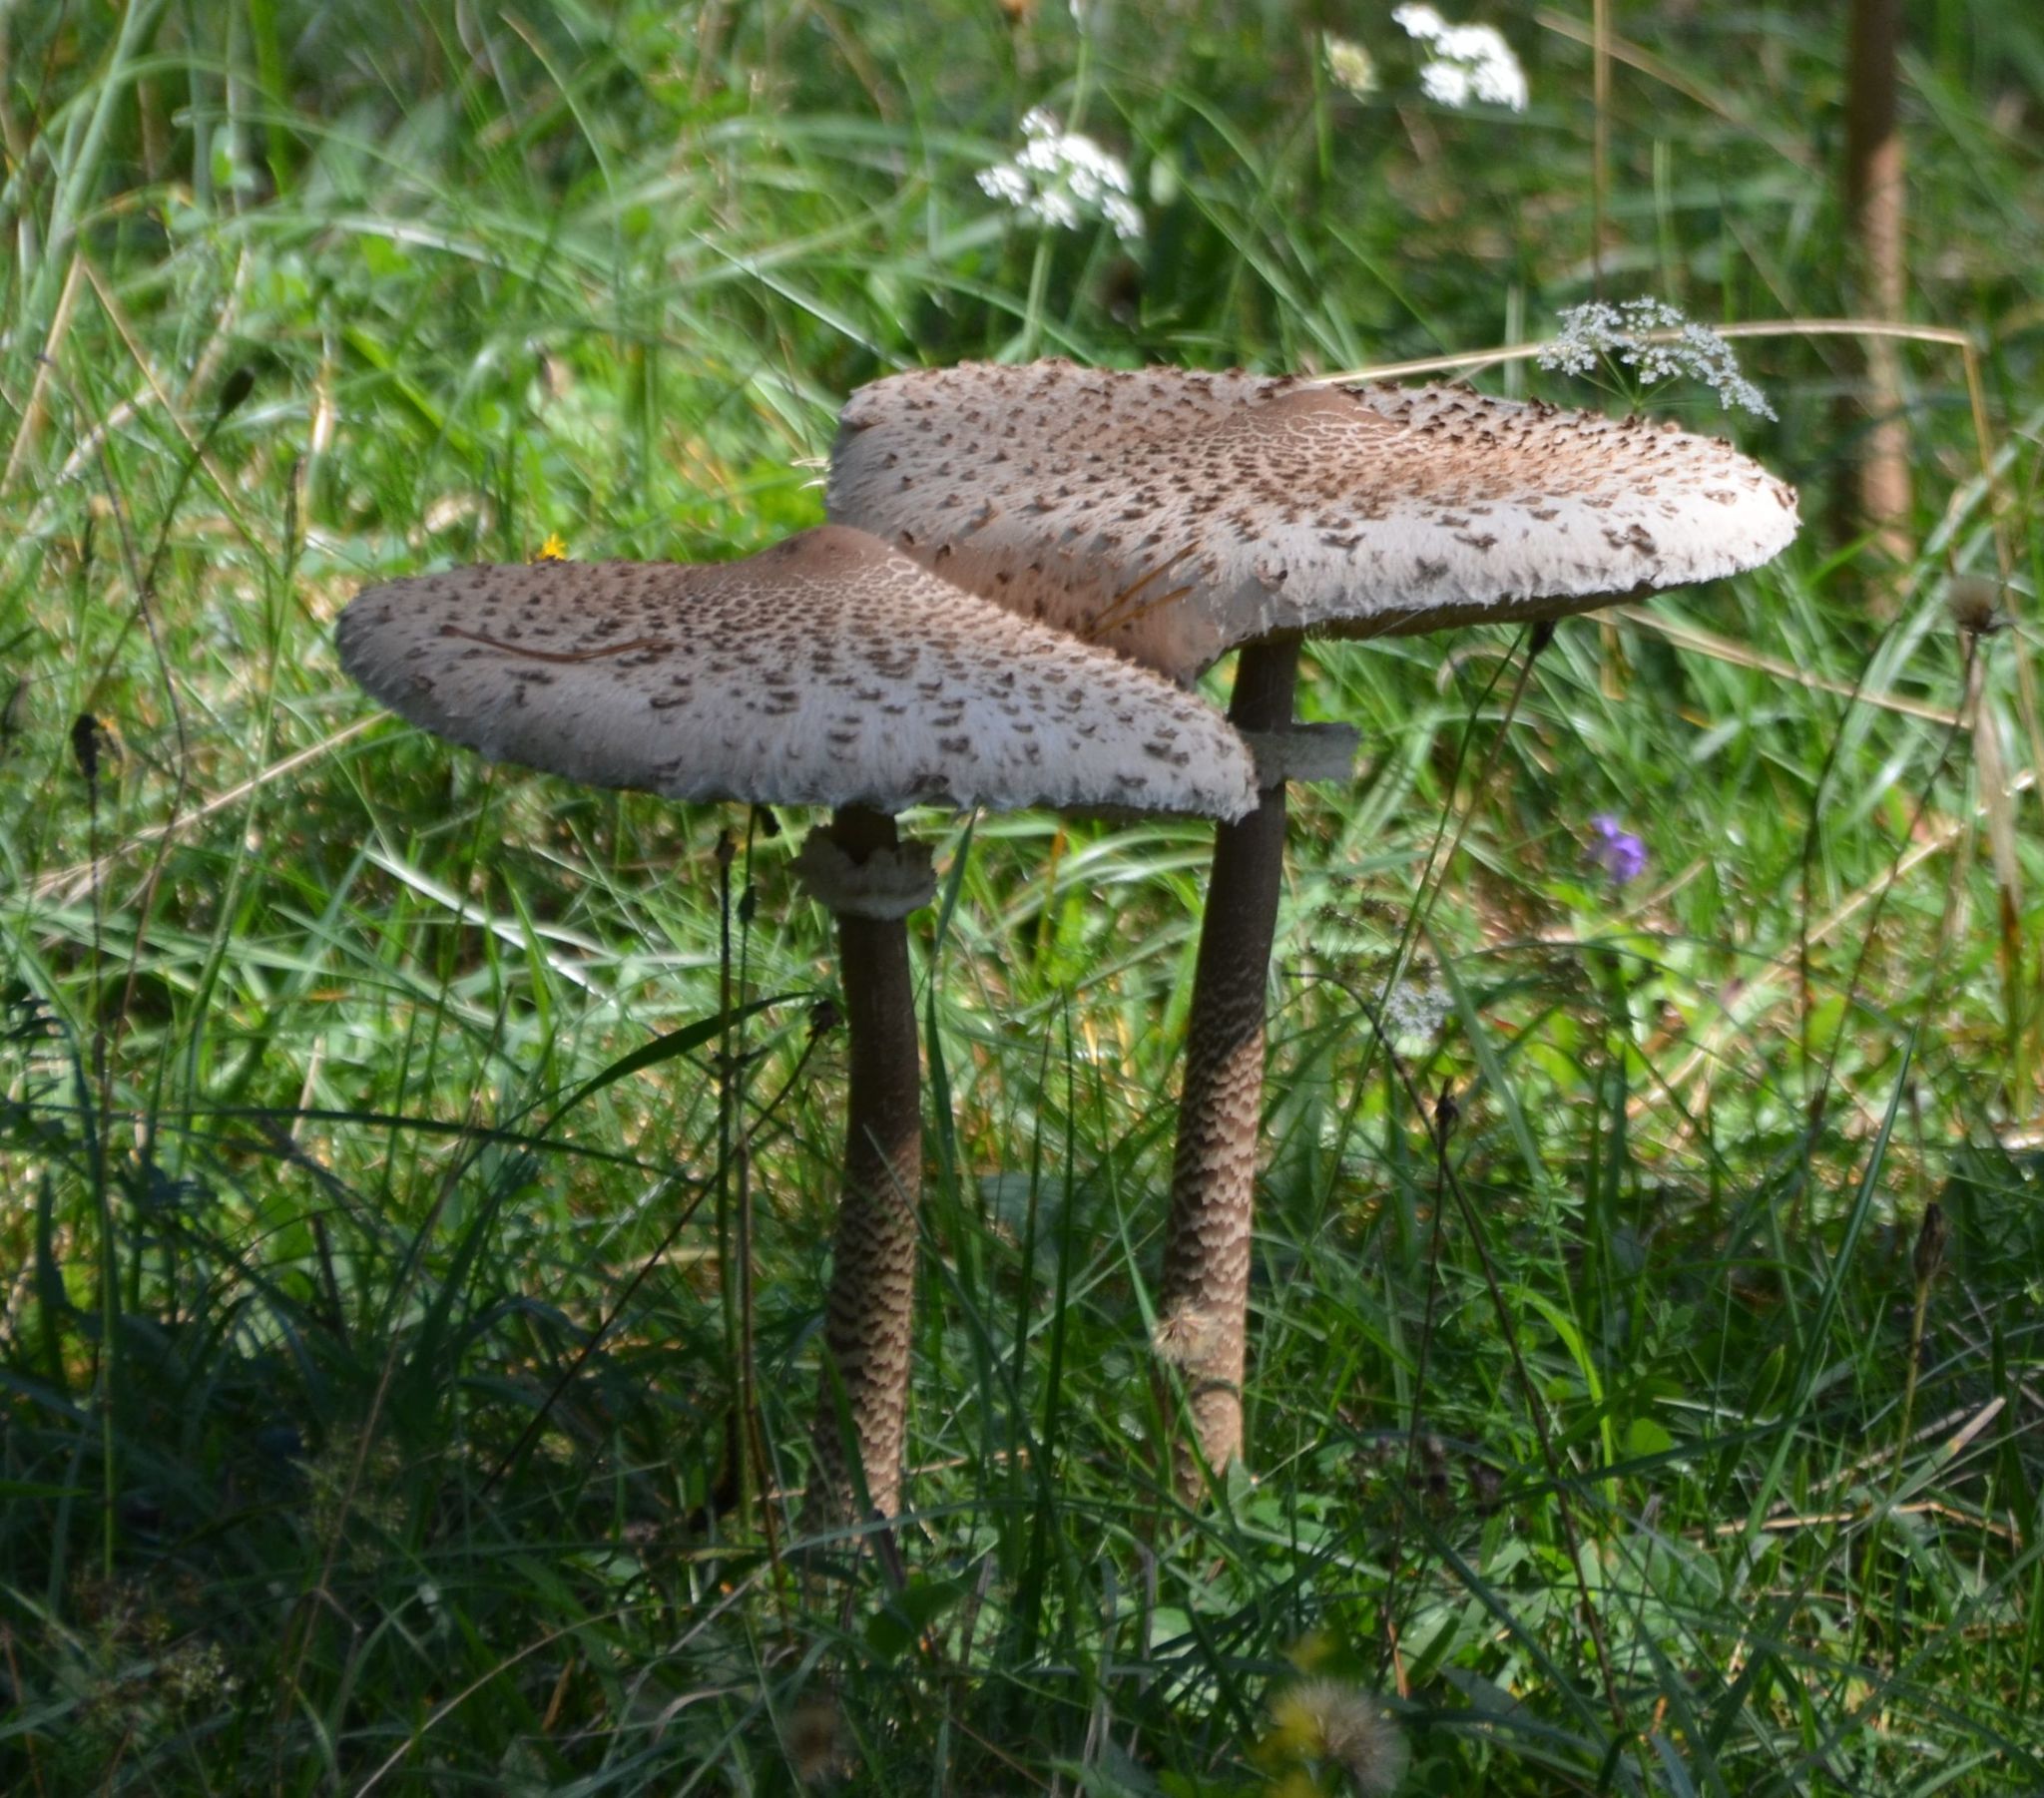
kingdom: Fungi
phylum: Basidiomycota
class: Agaricomycetes
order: Agaricales
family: Agaricaceae
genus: Macrolepiota
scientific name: Macrolepiota procera
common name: Parasol
